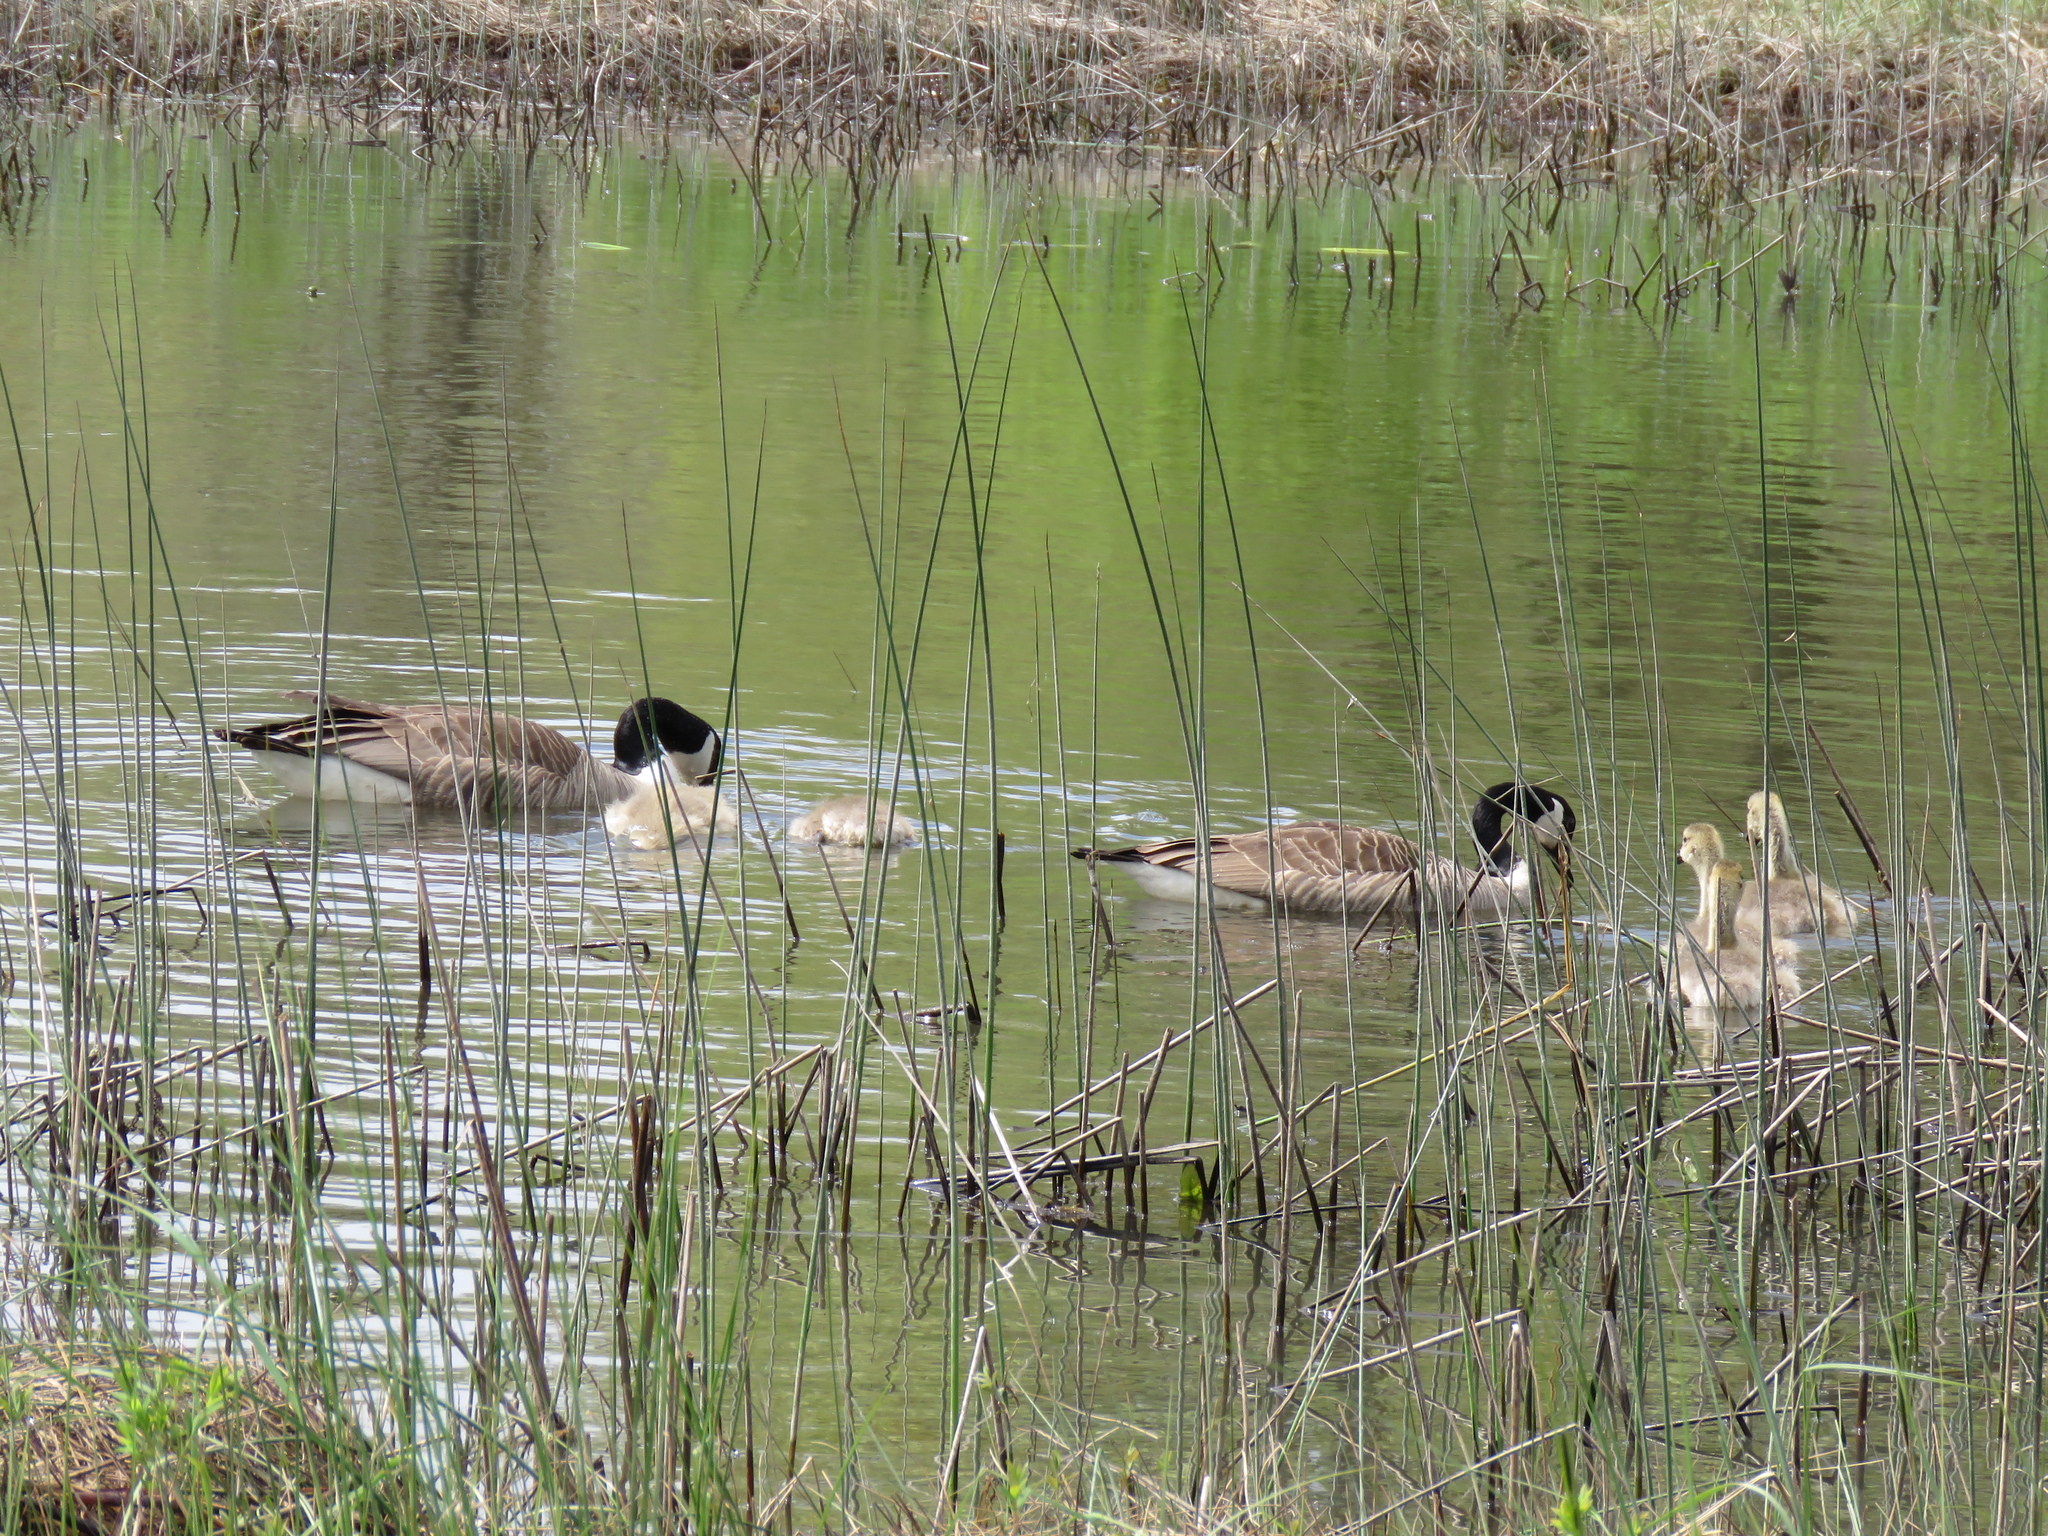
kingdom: Animalia
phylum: Chordata
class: Aves
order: Anseriformes
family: Anatidae
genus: Branta
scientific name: Branta canadensis
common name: Canada goose
